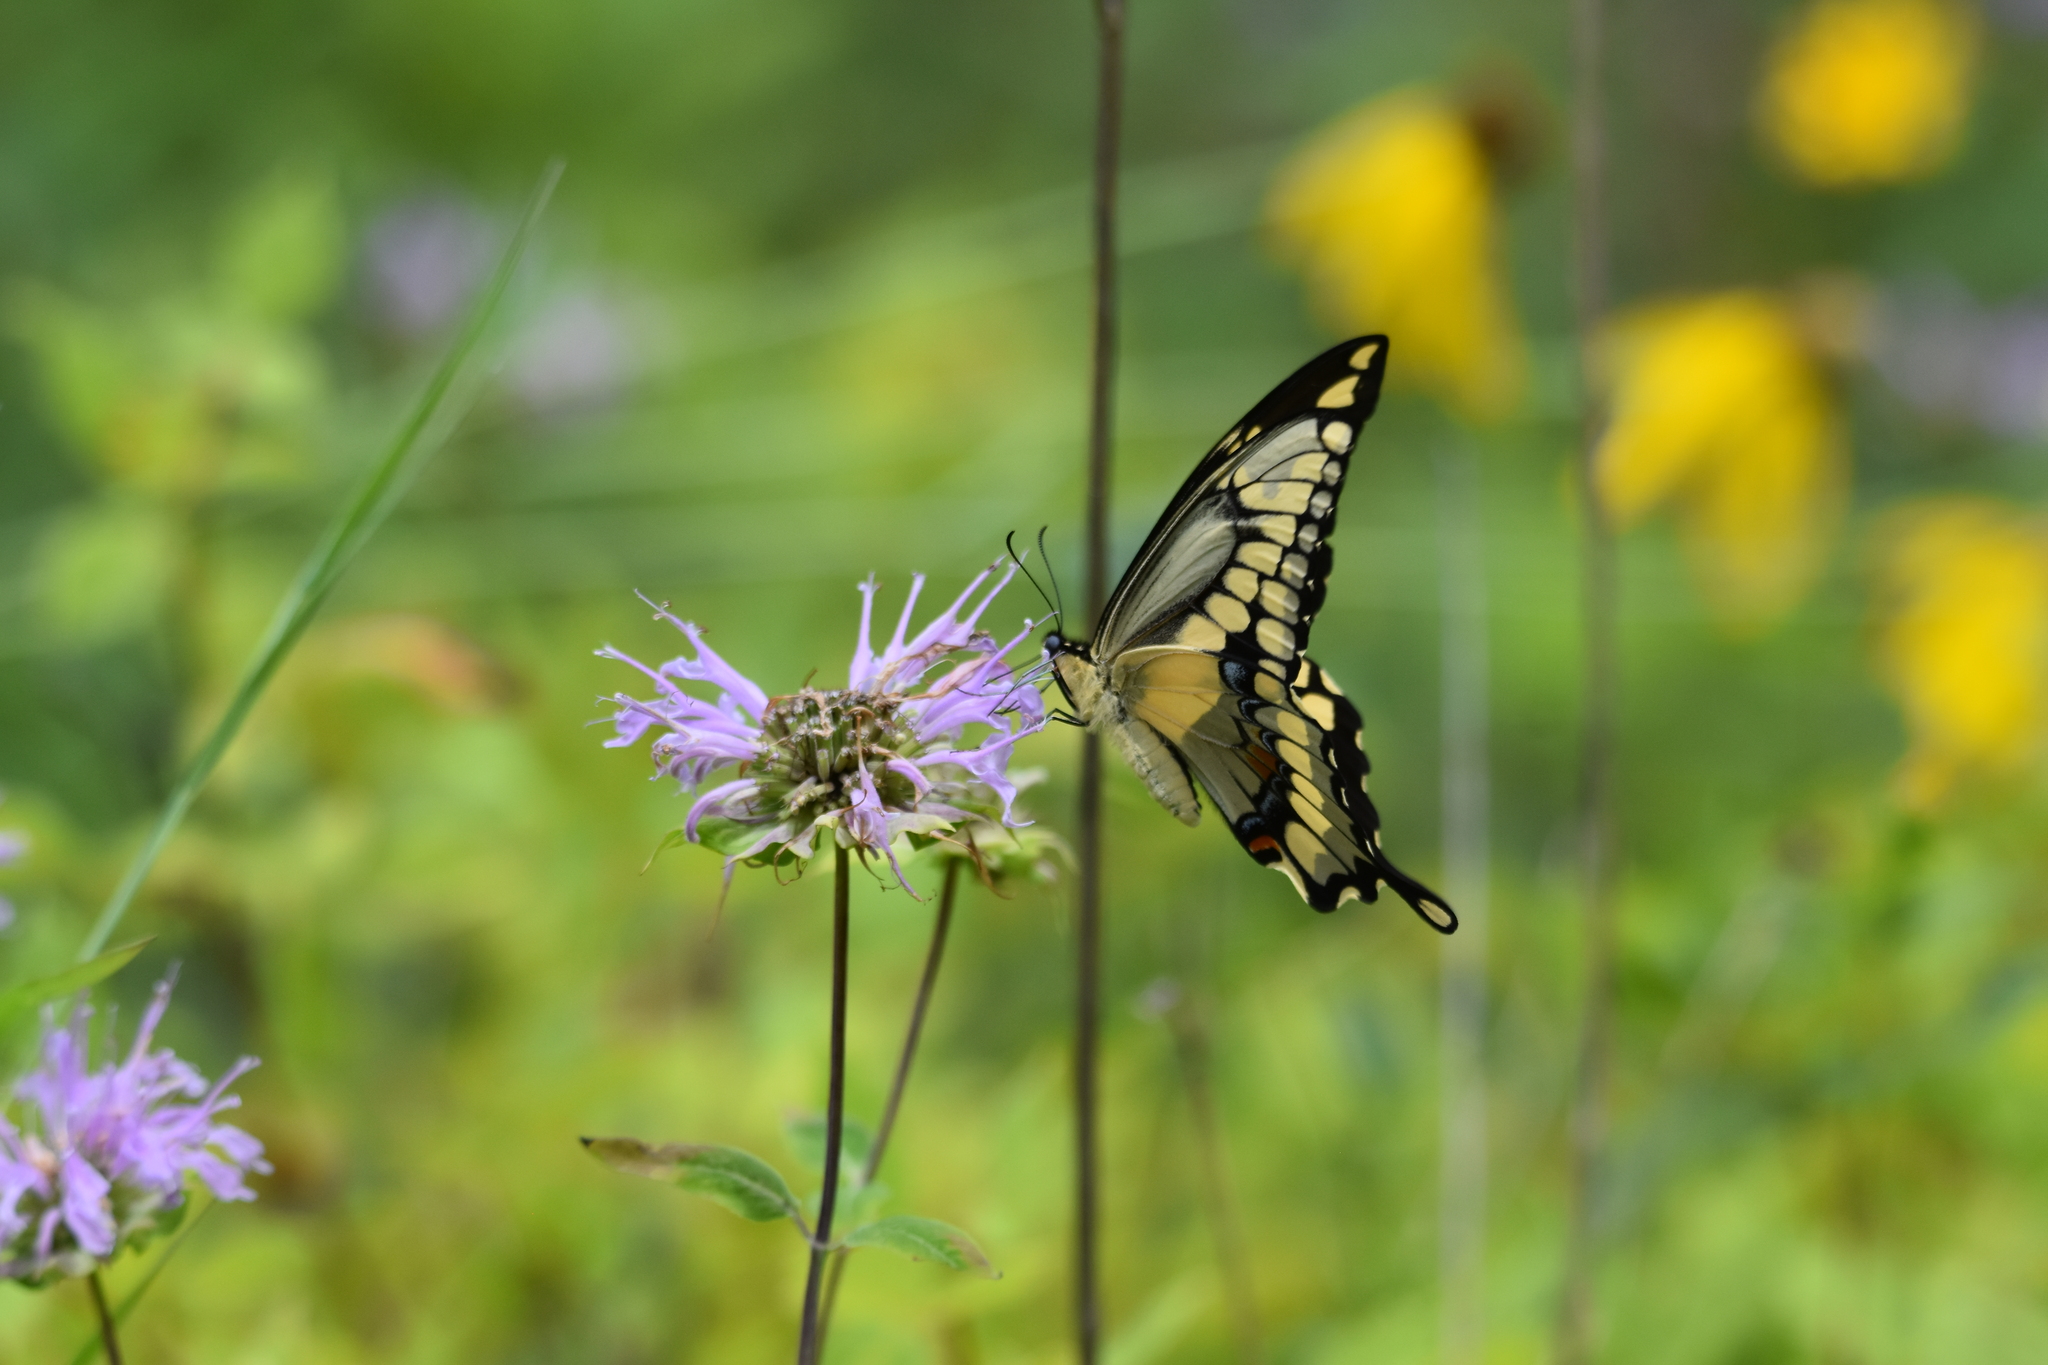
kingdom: Animalia
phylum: Arthropoda
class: Insecta
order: Lepidoptera
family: Papilionidae
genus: Papilio
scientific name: Papilio cresphontes
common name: Giant swallowtail
